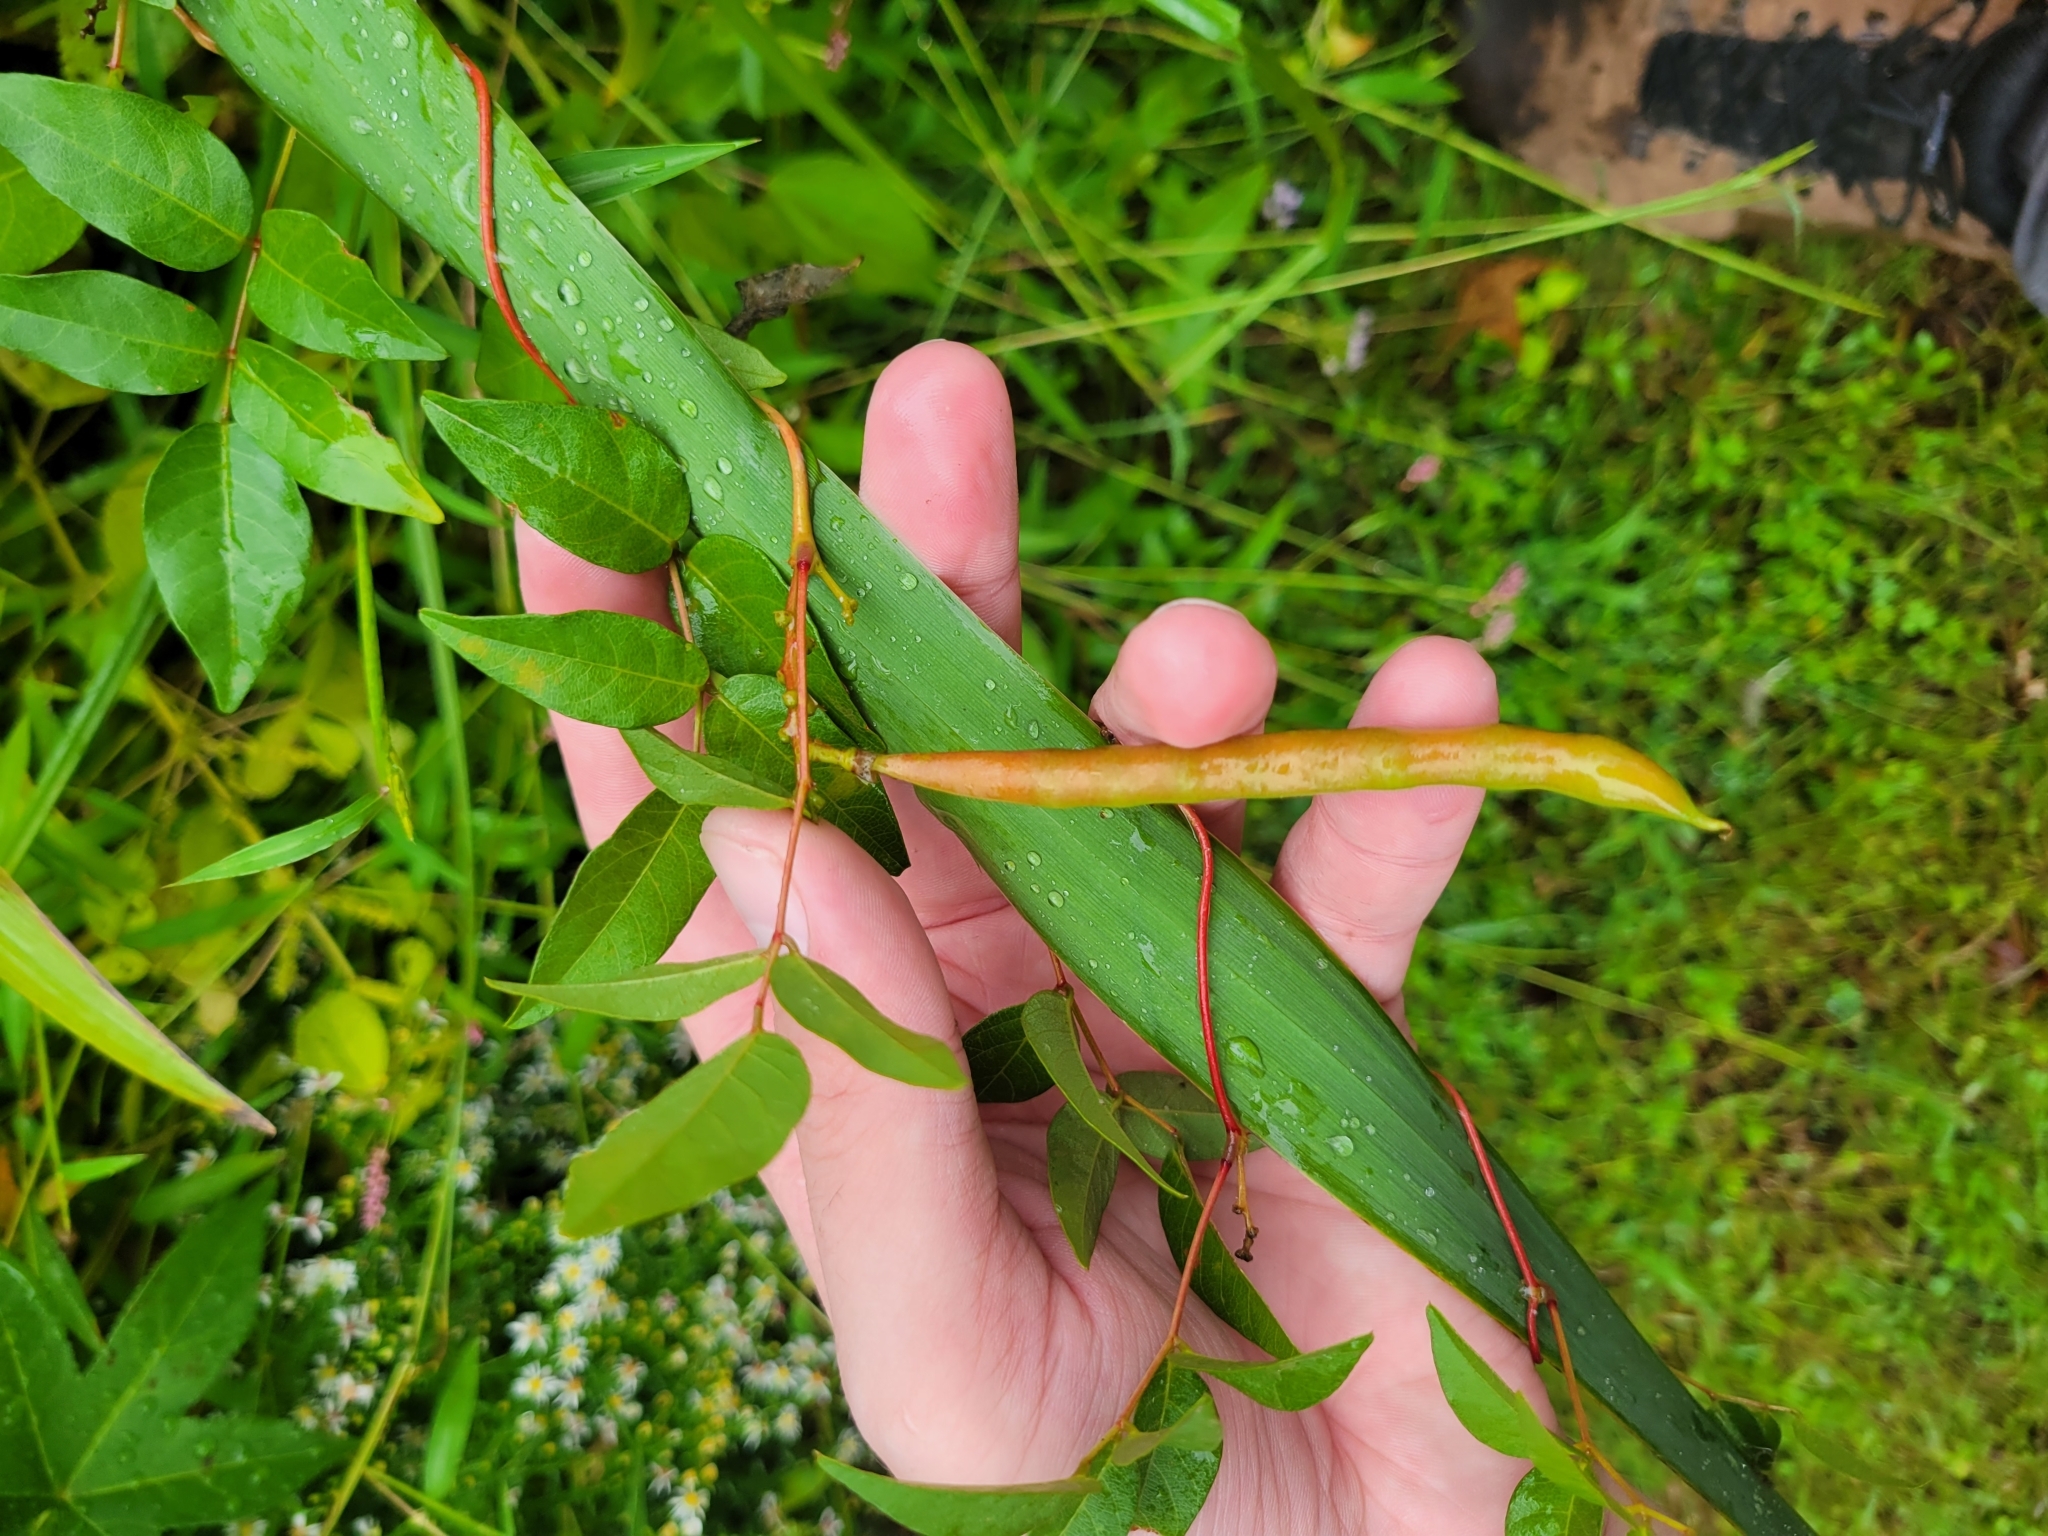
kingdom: Plantae
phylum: Tracheophyta
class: Magnoliopsida
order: Fabales
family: Fabaceae
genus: Apios
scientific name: Apios americana
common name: American potato-bean
